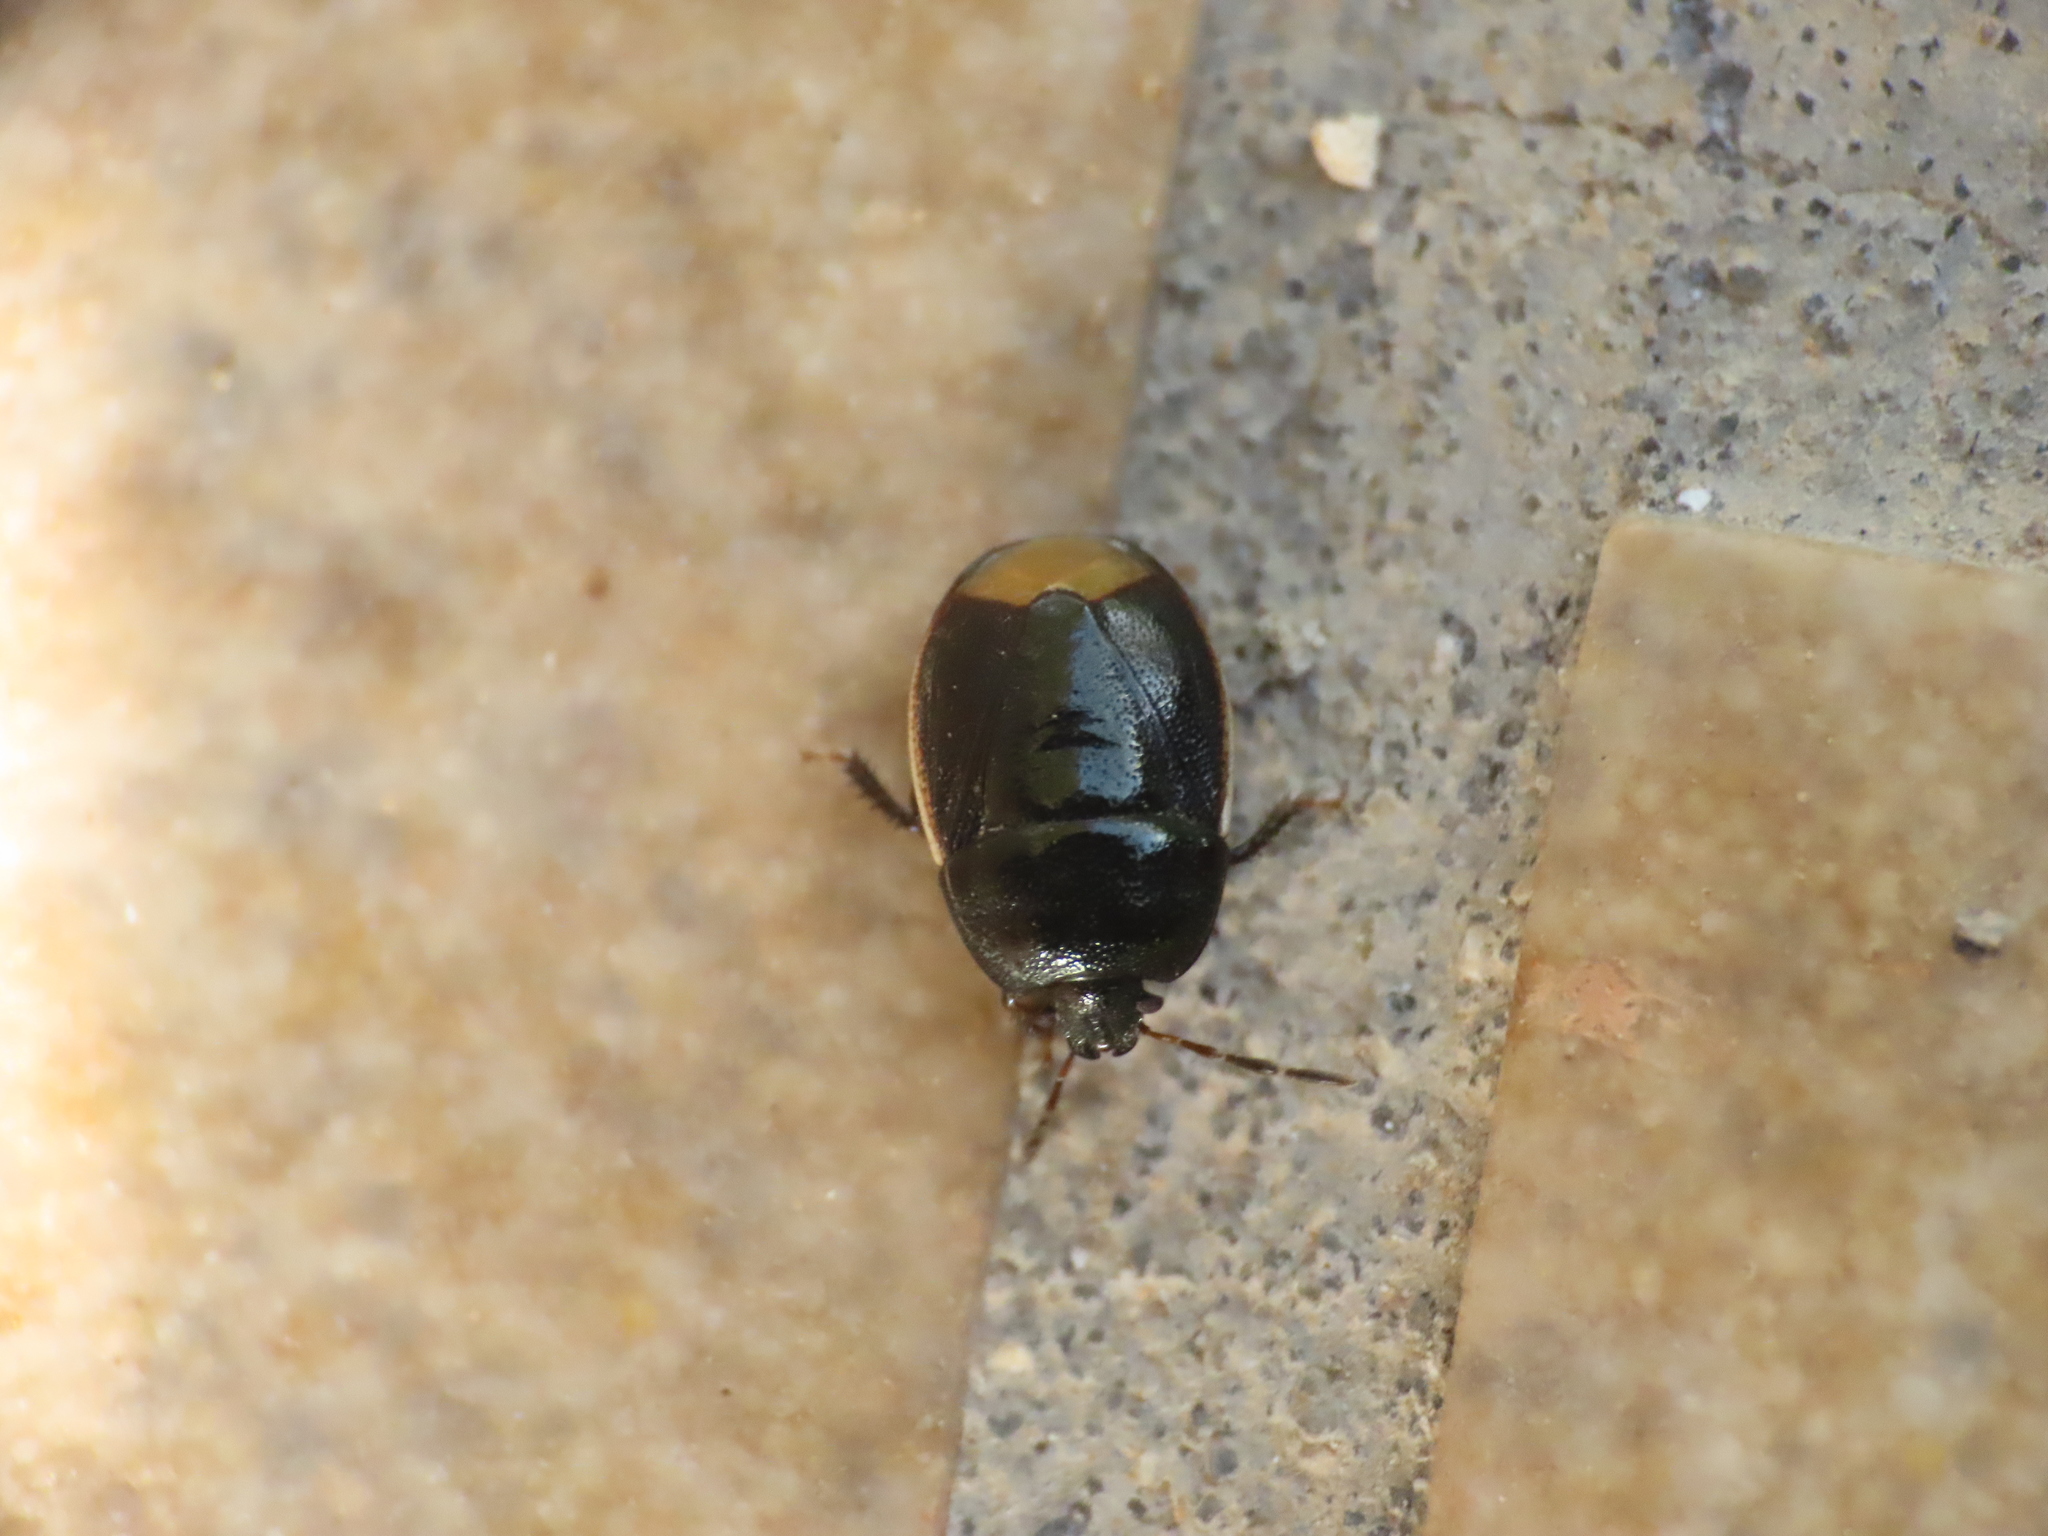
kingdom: Animalia
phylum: Arthropoda
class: Insecta
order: Hemiptera
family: Cydnidae
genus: Legnotus
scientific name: Legnotus limbosus
